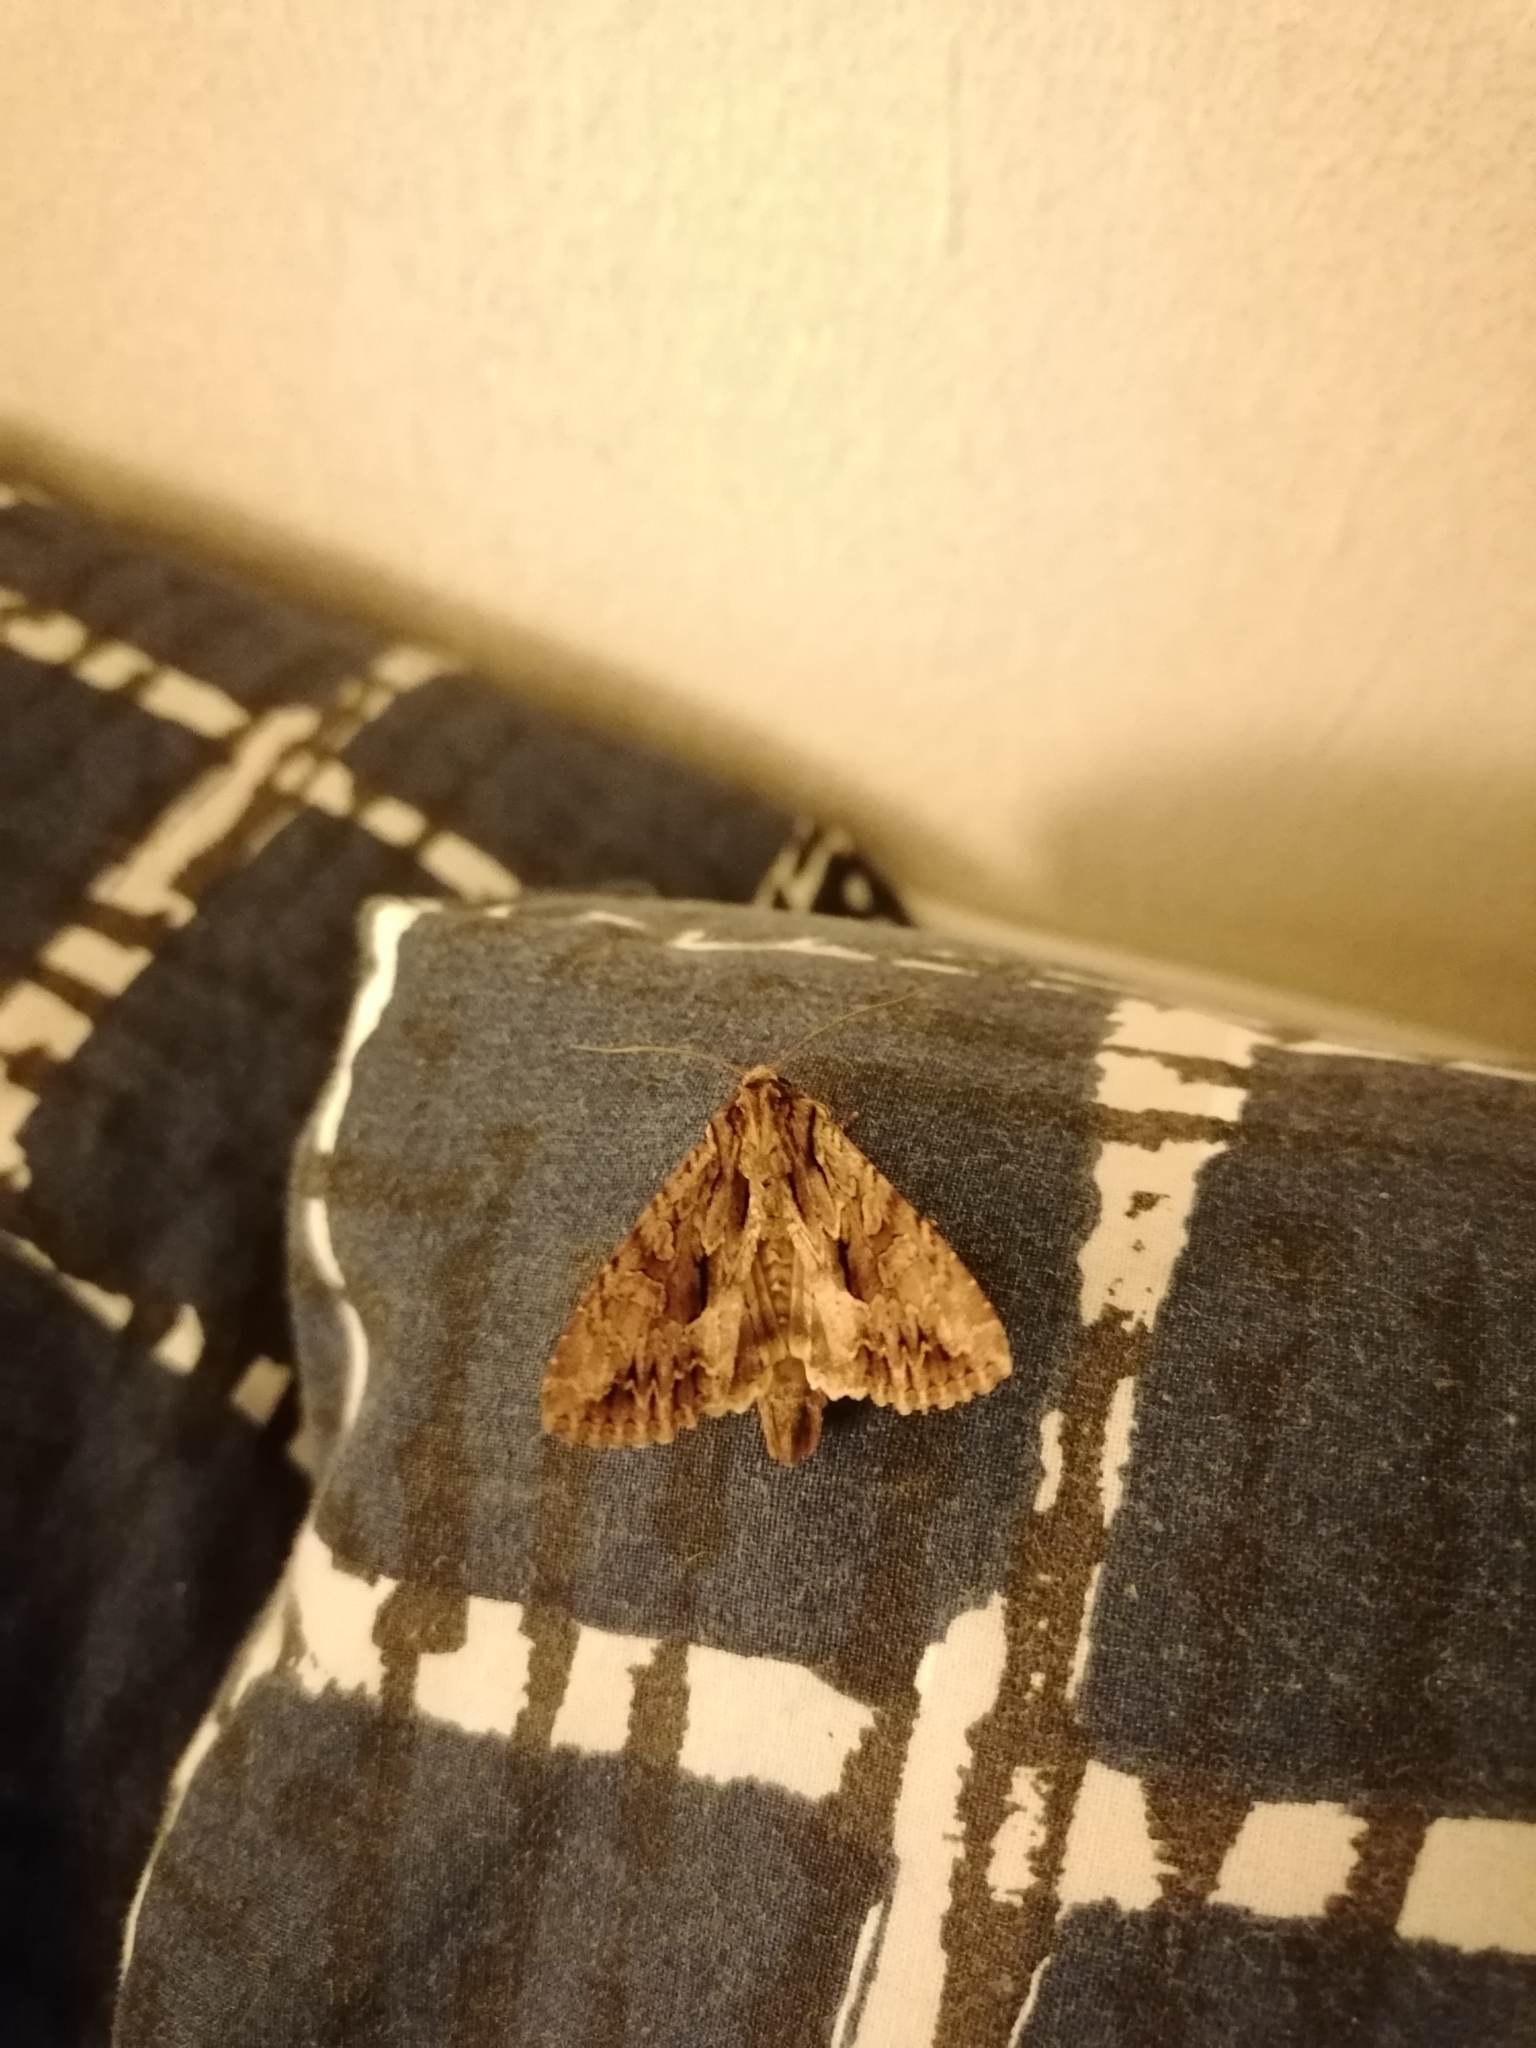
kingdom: Animalia
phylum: Arthropoda
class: Insecta
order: Lepidoptera
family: Noctuidae
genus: Apamea
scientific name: Apamea monoglypha
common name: Dark arches
